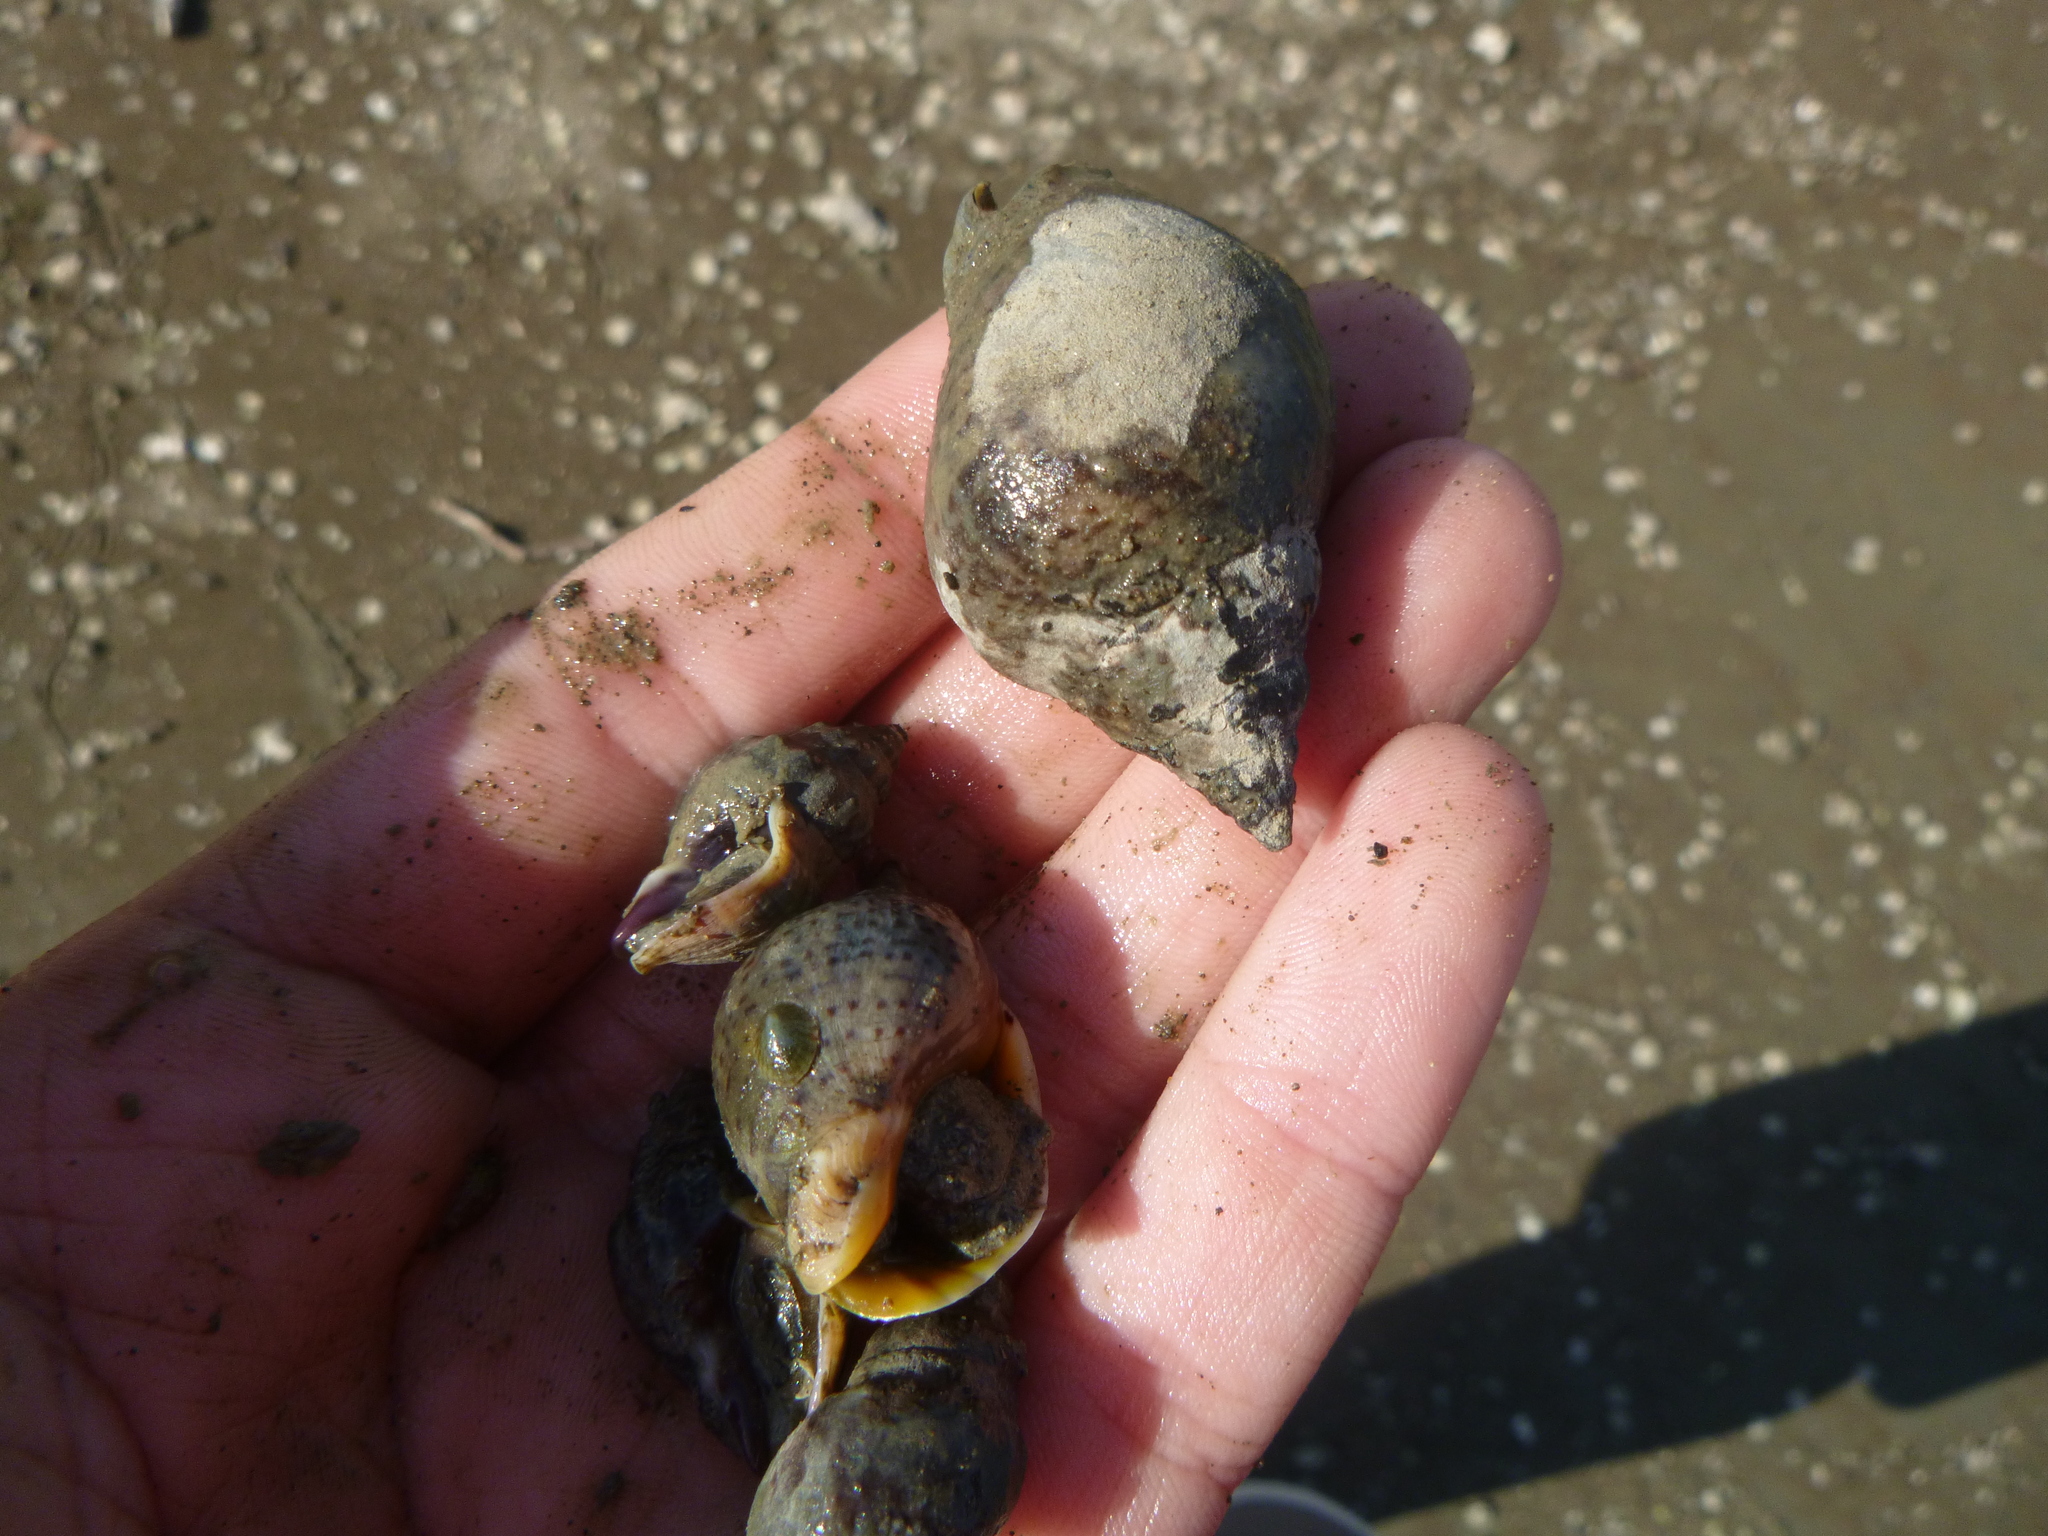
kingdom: Animalia
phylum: Mollusca
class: Gastropoda
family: Lottiidae
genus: Notoacmea
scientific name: Notoacmea
